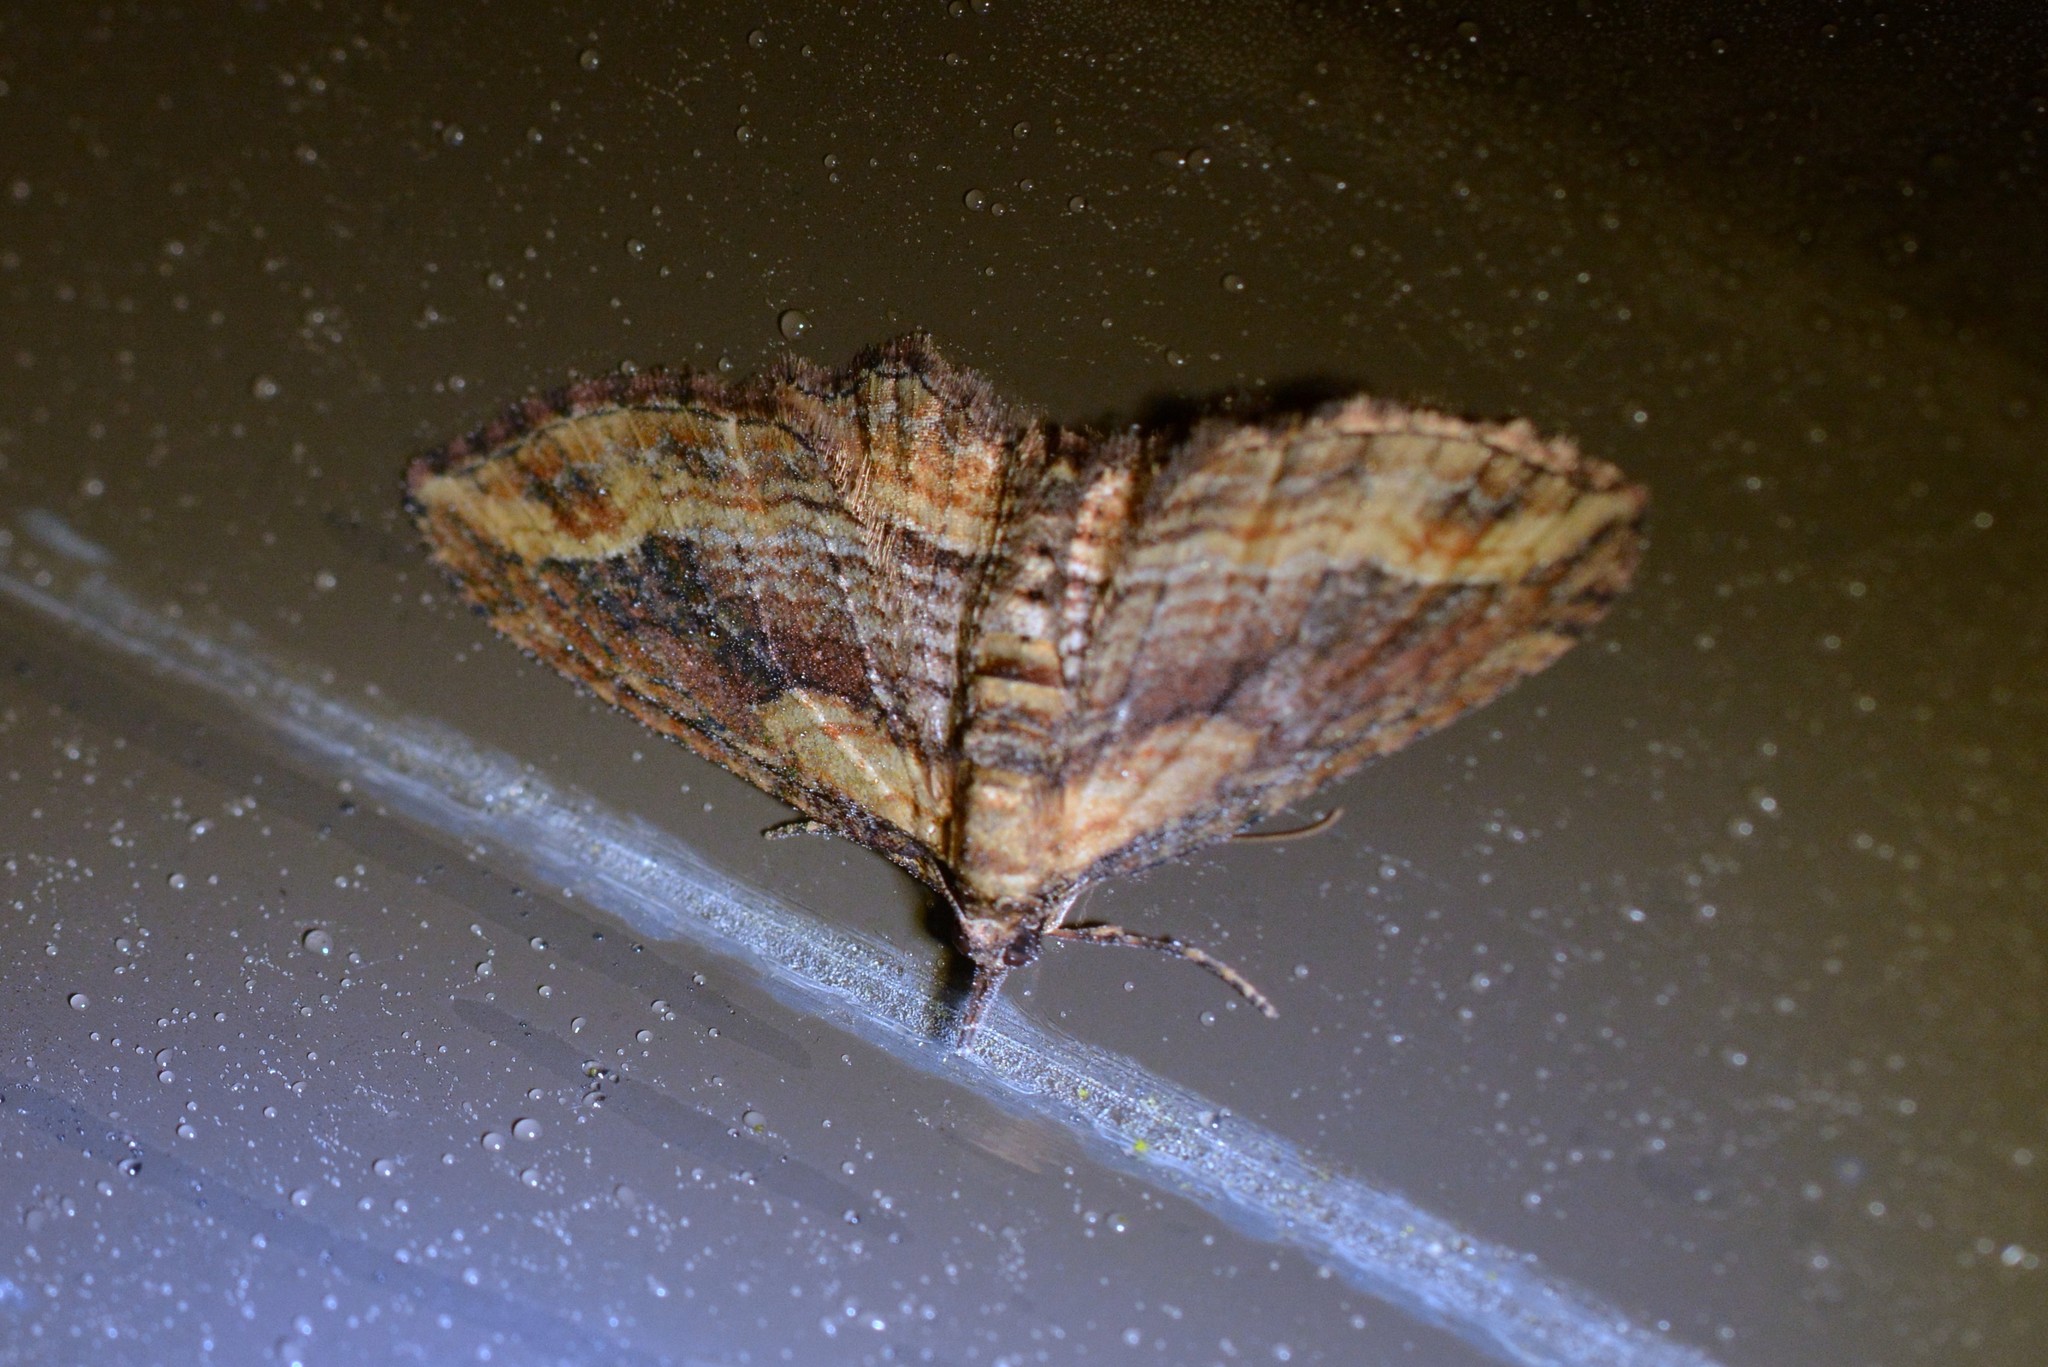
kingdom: Animalia
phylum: Arthropoda
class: Insecta
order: Lepidoptera
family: Geometridae
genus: Chloroclystis
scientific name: Chloroclystis filata
